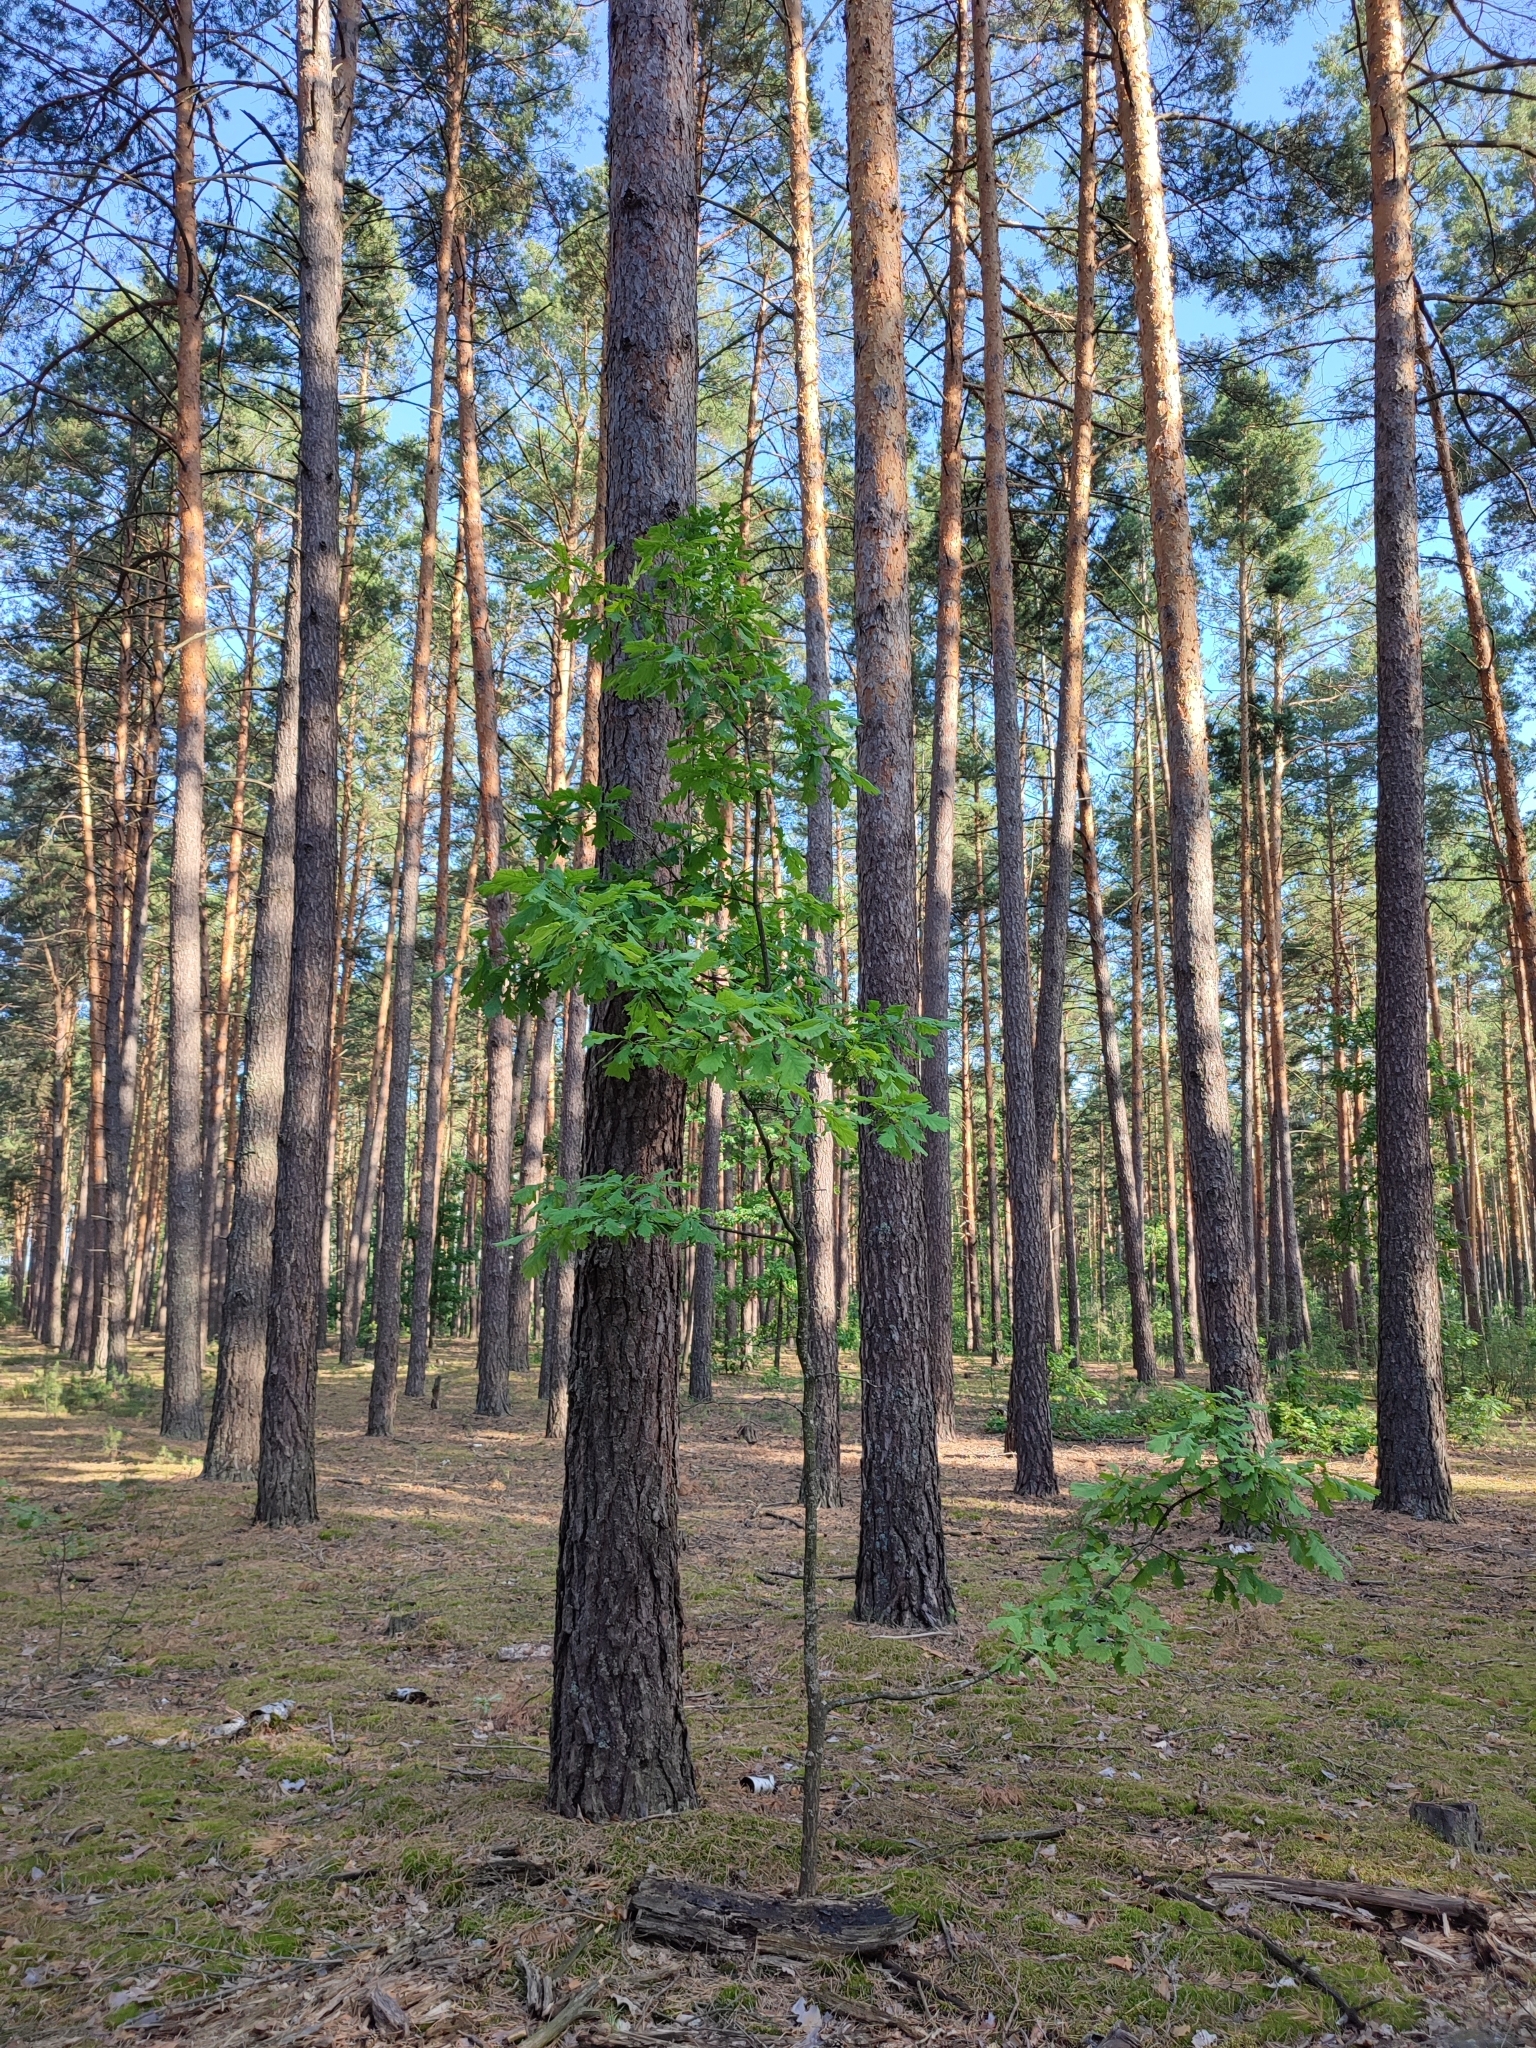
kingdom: Plantae
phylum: Tracheophyta
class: Magnoliopsida
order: Fagales
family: Fagaceae
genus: Quercus
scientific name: Quercus robur
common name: Pedunculate oak
